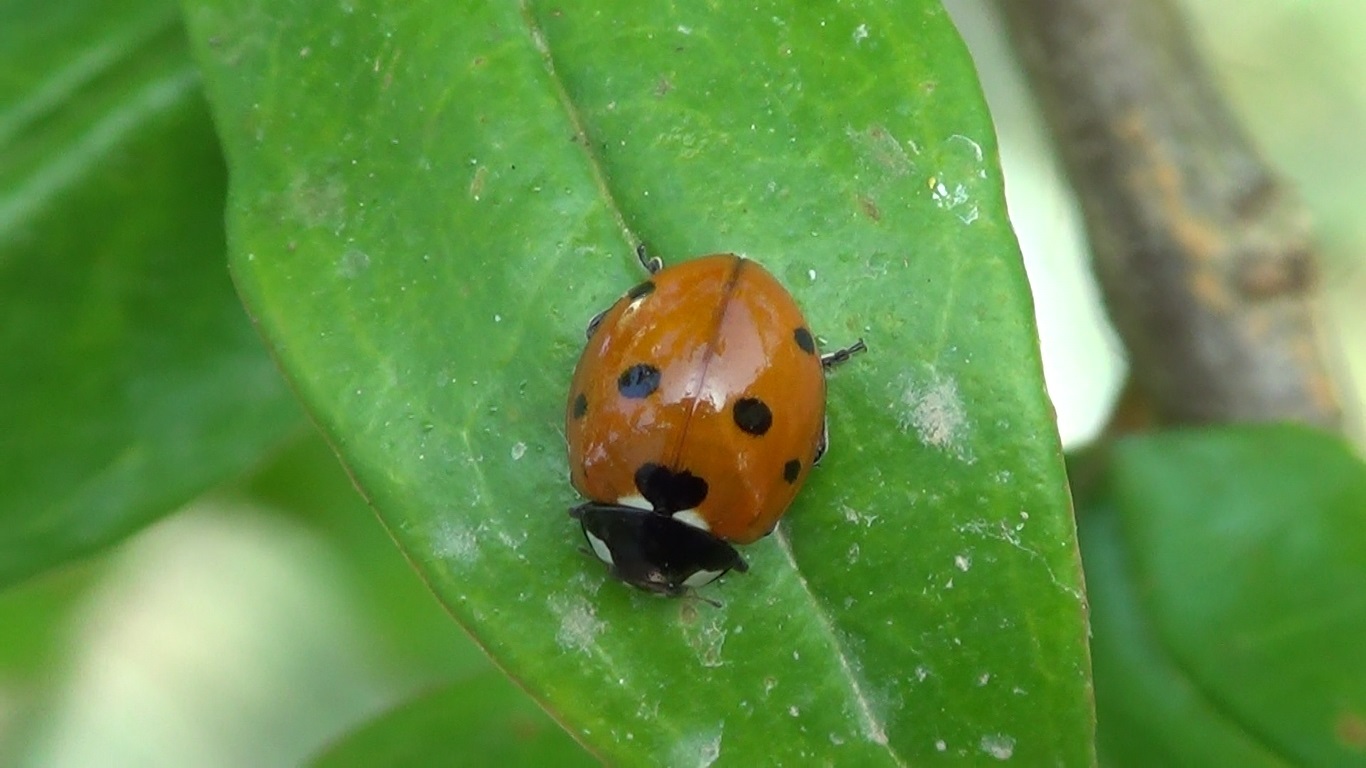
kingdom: Animalia
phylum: Arthropoda
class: Insecta
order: Coleoptera
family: Coccinellidae
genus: Coccinella
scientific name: Coccinella septempunctata
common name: Sevenspotted lady beetle
